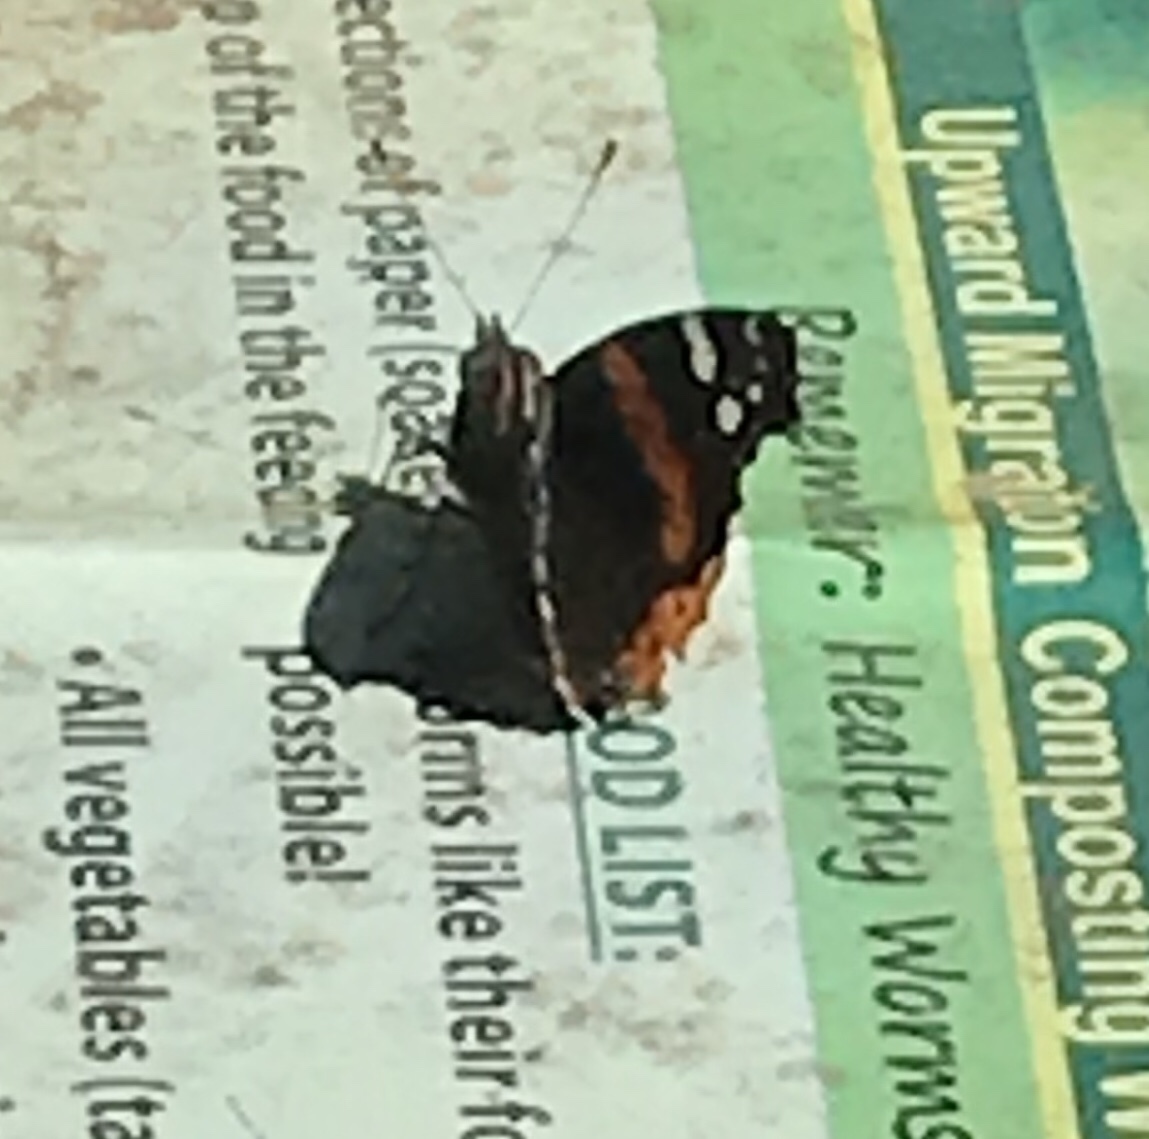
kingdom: Animalia
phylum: Arthropoda
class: Insecta
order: Lepidoptera
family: Nymphalidae
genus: Vanessa
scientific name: Vanessa atalanta
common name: Red admiral
